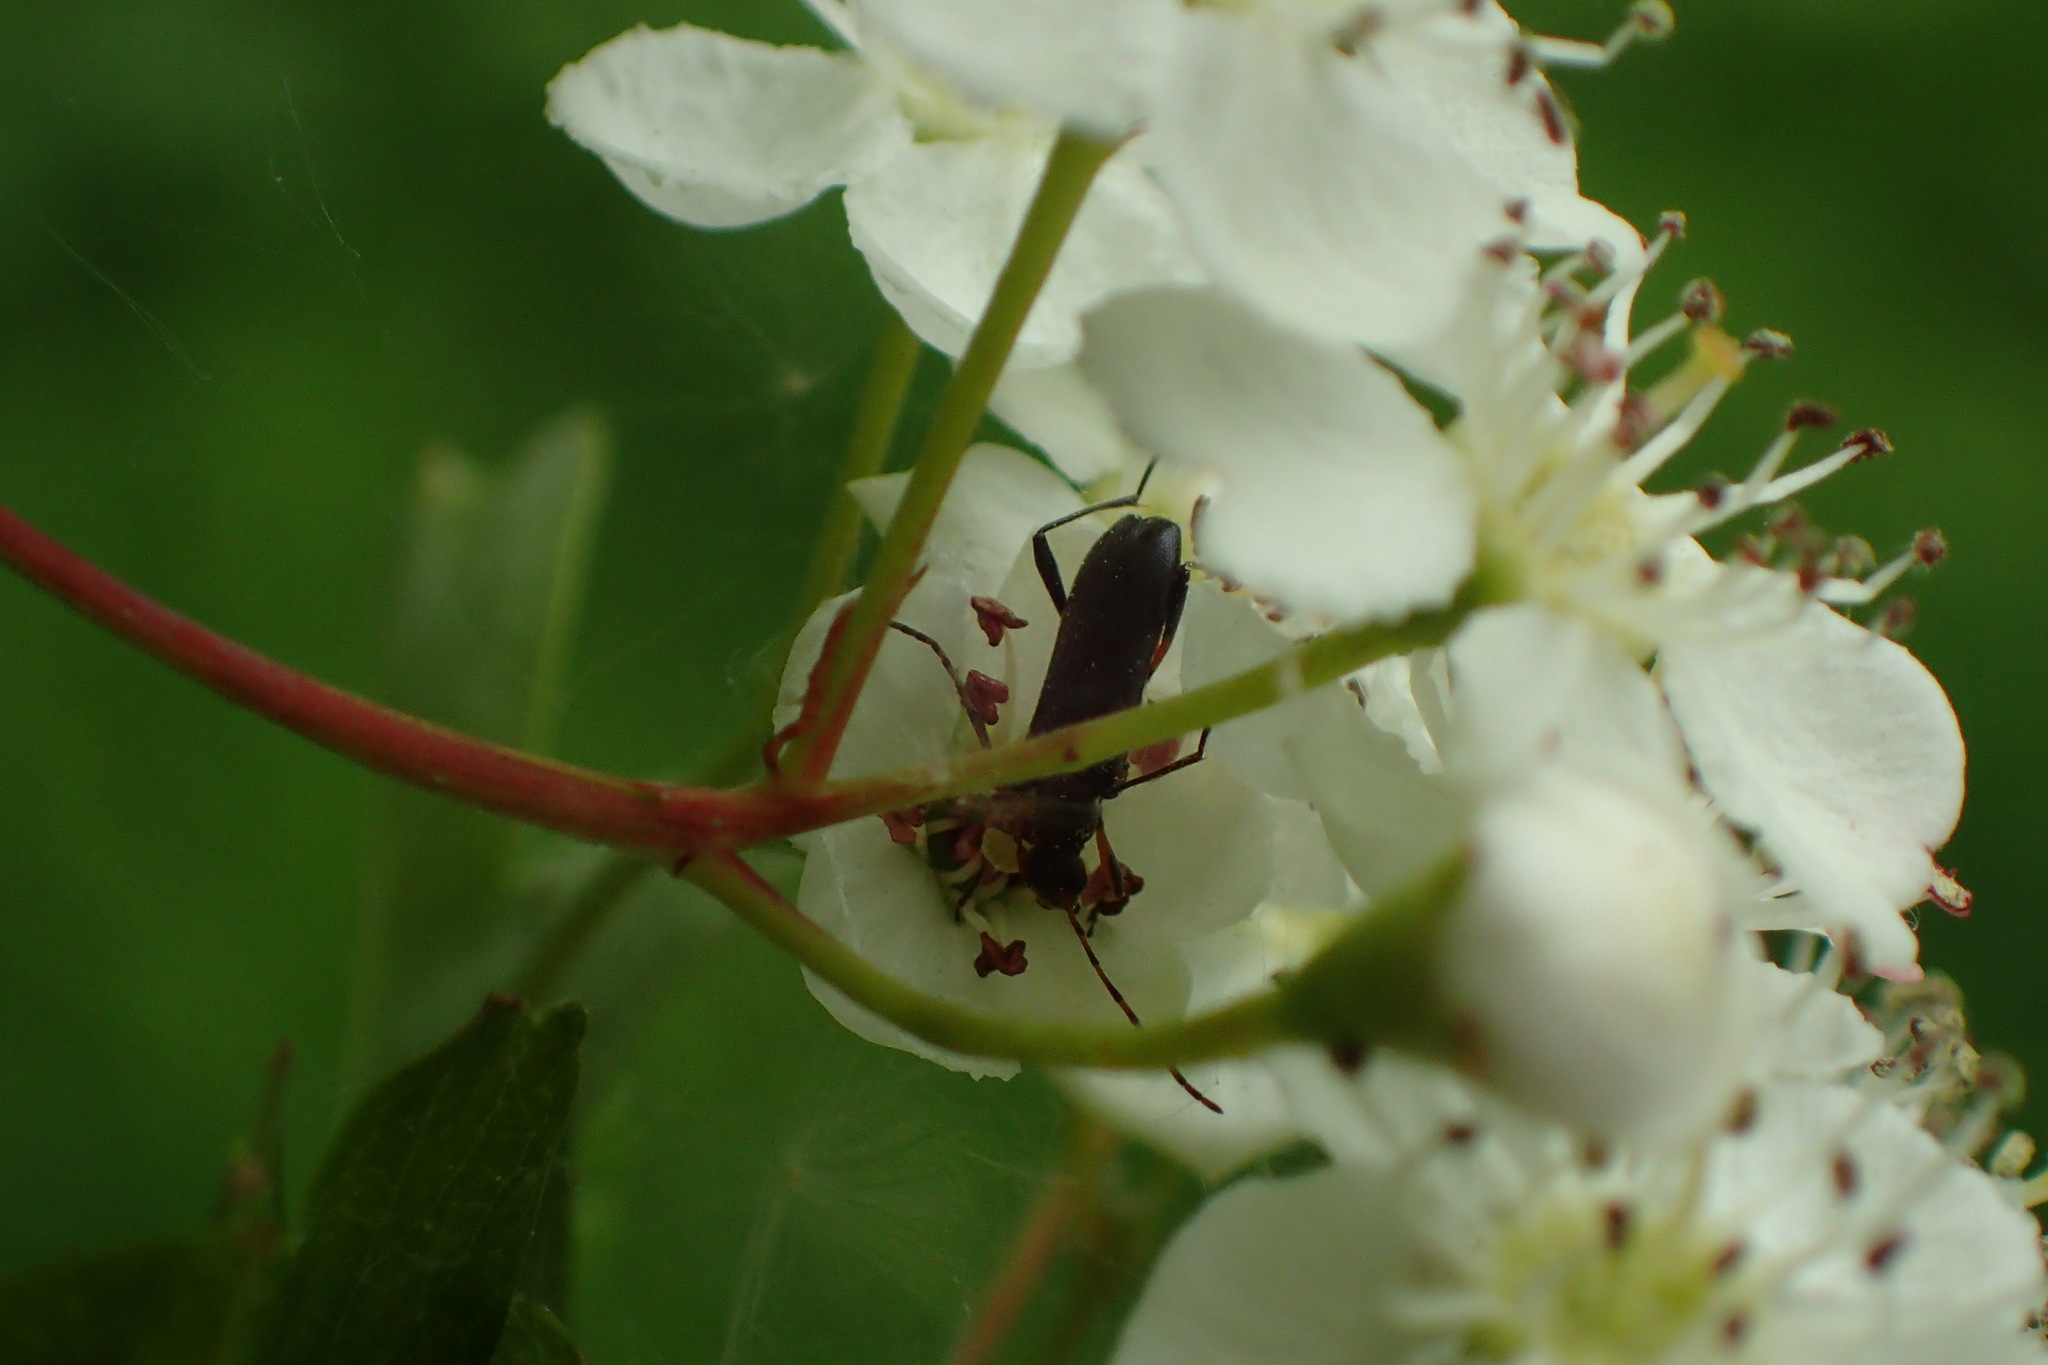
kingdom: Animalia
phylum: Arthropoda
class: Insecta
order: Coleoptera
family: Cerambycidae
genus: Grammoptera
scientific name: Grammoptera ruficornis
